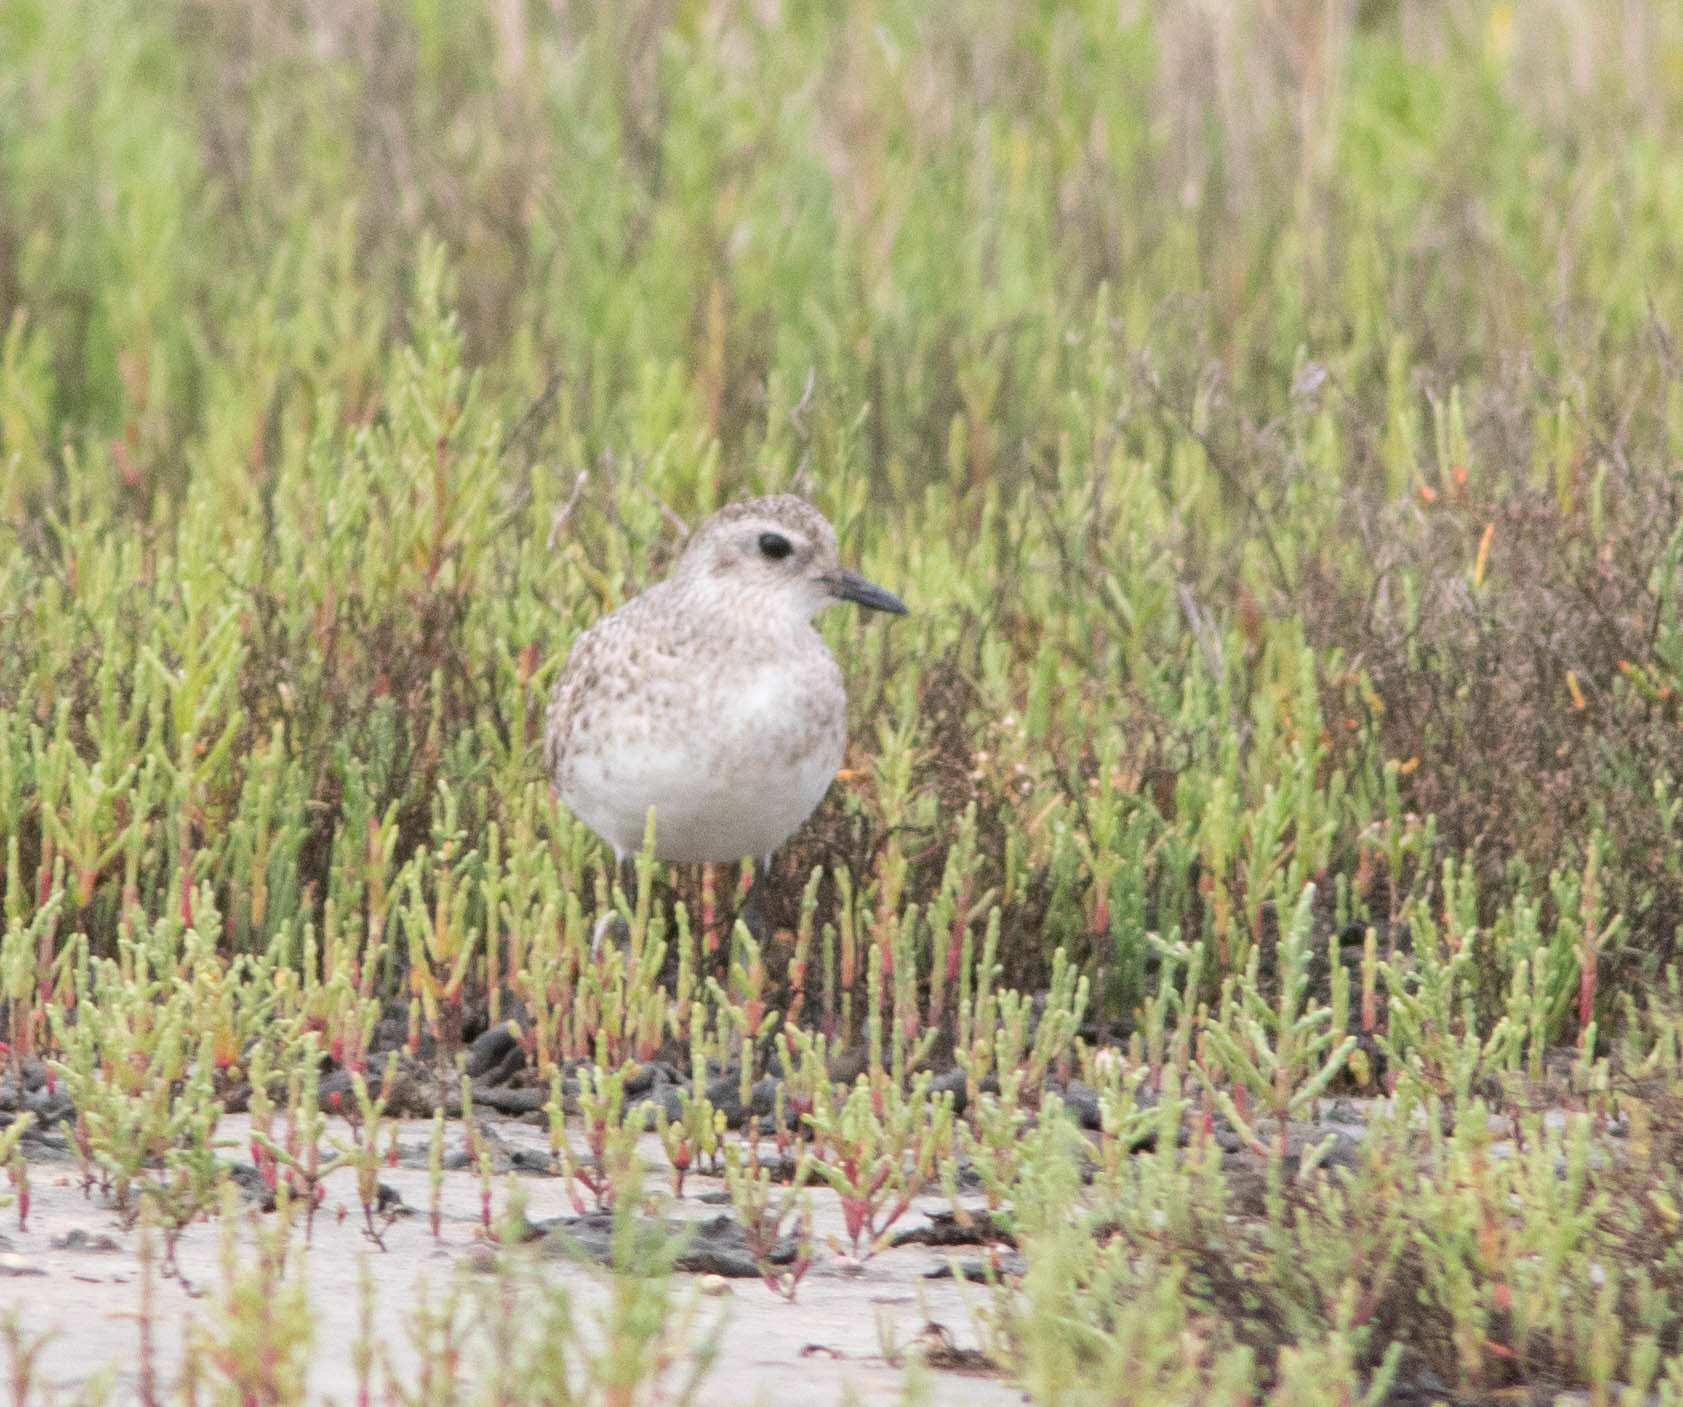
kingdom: Animalia
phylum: Chordata
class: Aves
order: Charadriiformes
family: Charadriidae
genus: Pluvialis
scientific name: Pluvialis squatarola
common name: Grey plover
